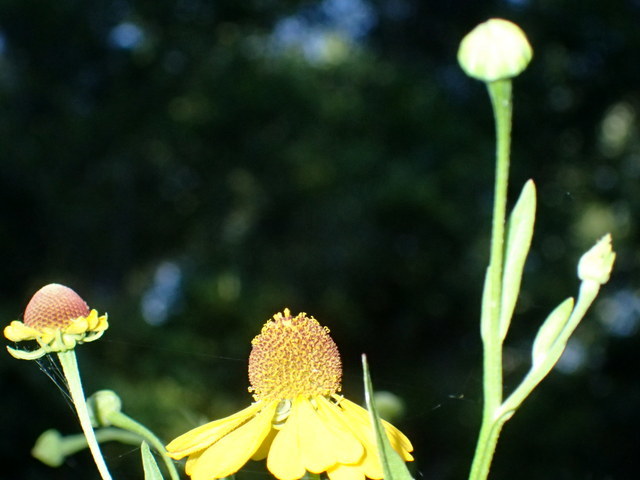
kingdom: Plantae
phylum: Tracheophyta
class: Magnoliopsida
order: Asterales
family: Asteraceae
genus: Helenium
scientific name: Helenium flexuosum
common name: Naked-flowered sneezeweed
